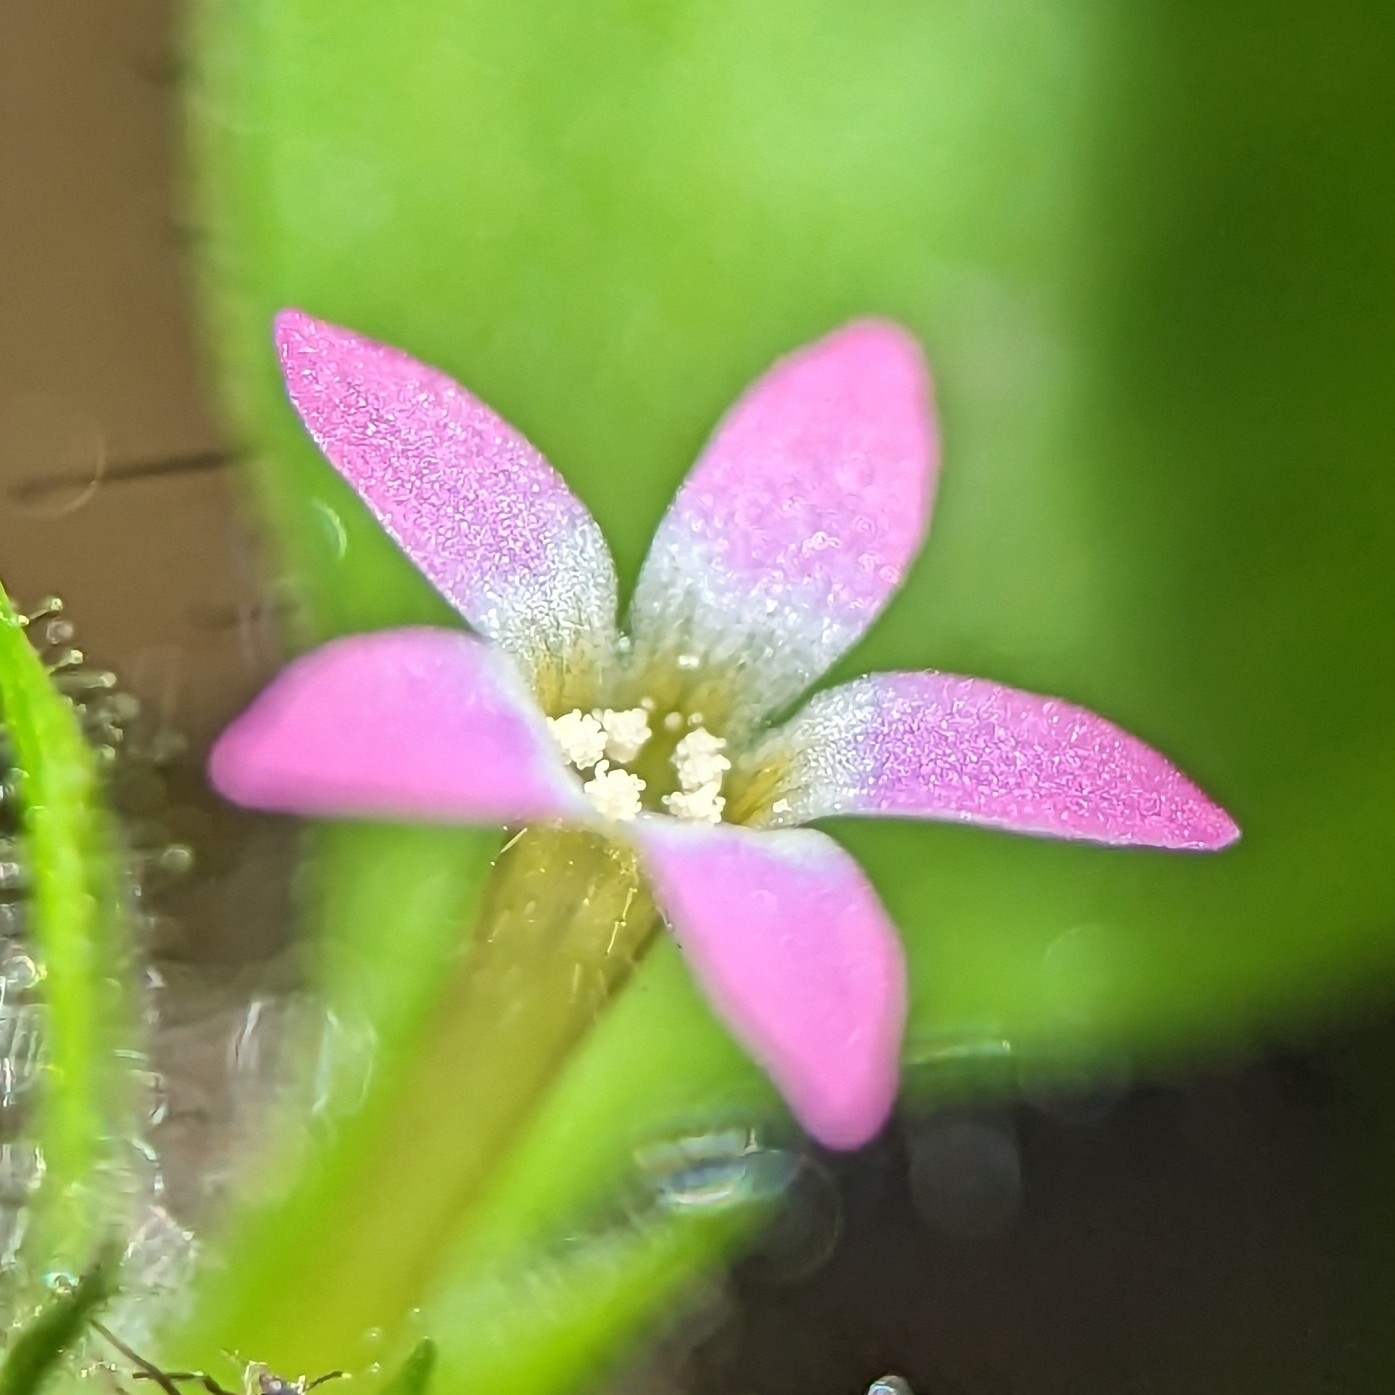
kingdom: Plantae
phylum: Tracheophyta
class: Magnoliopsida
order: Ericales
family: Polemoniaceae
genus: Collomia
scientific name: Collomia heterophylla
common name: Variable-leaved collomia
